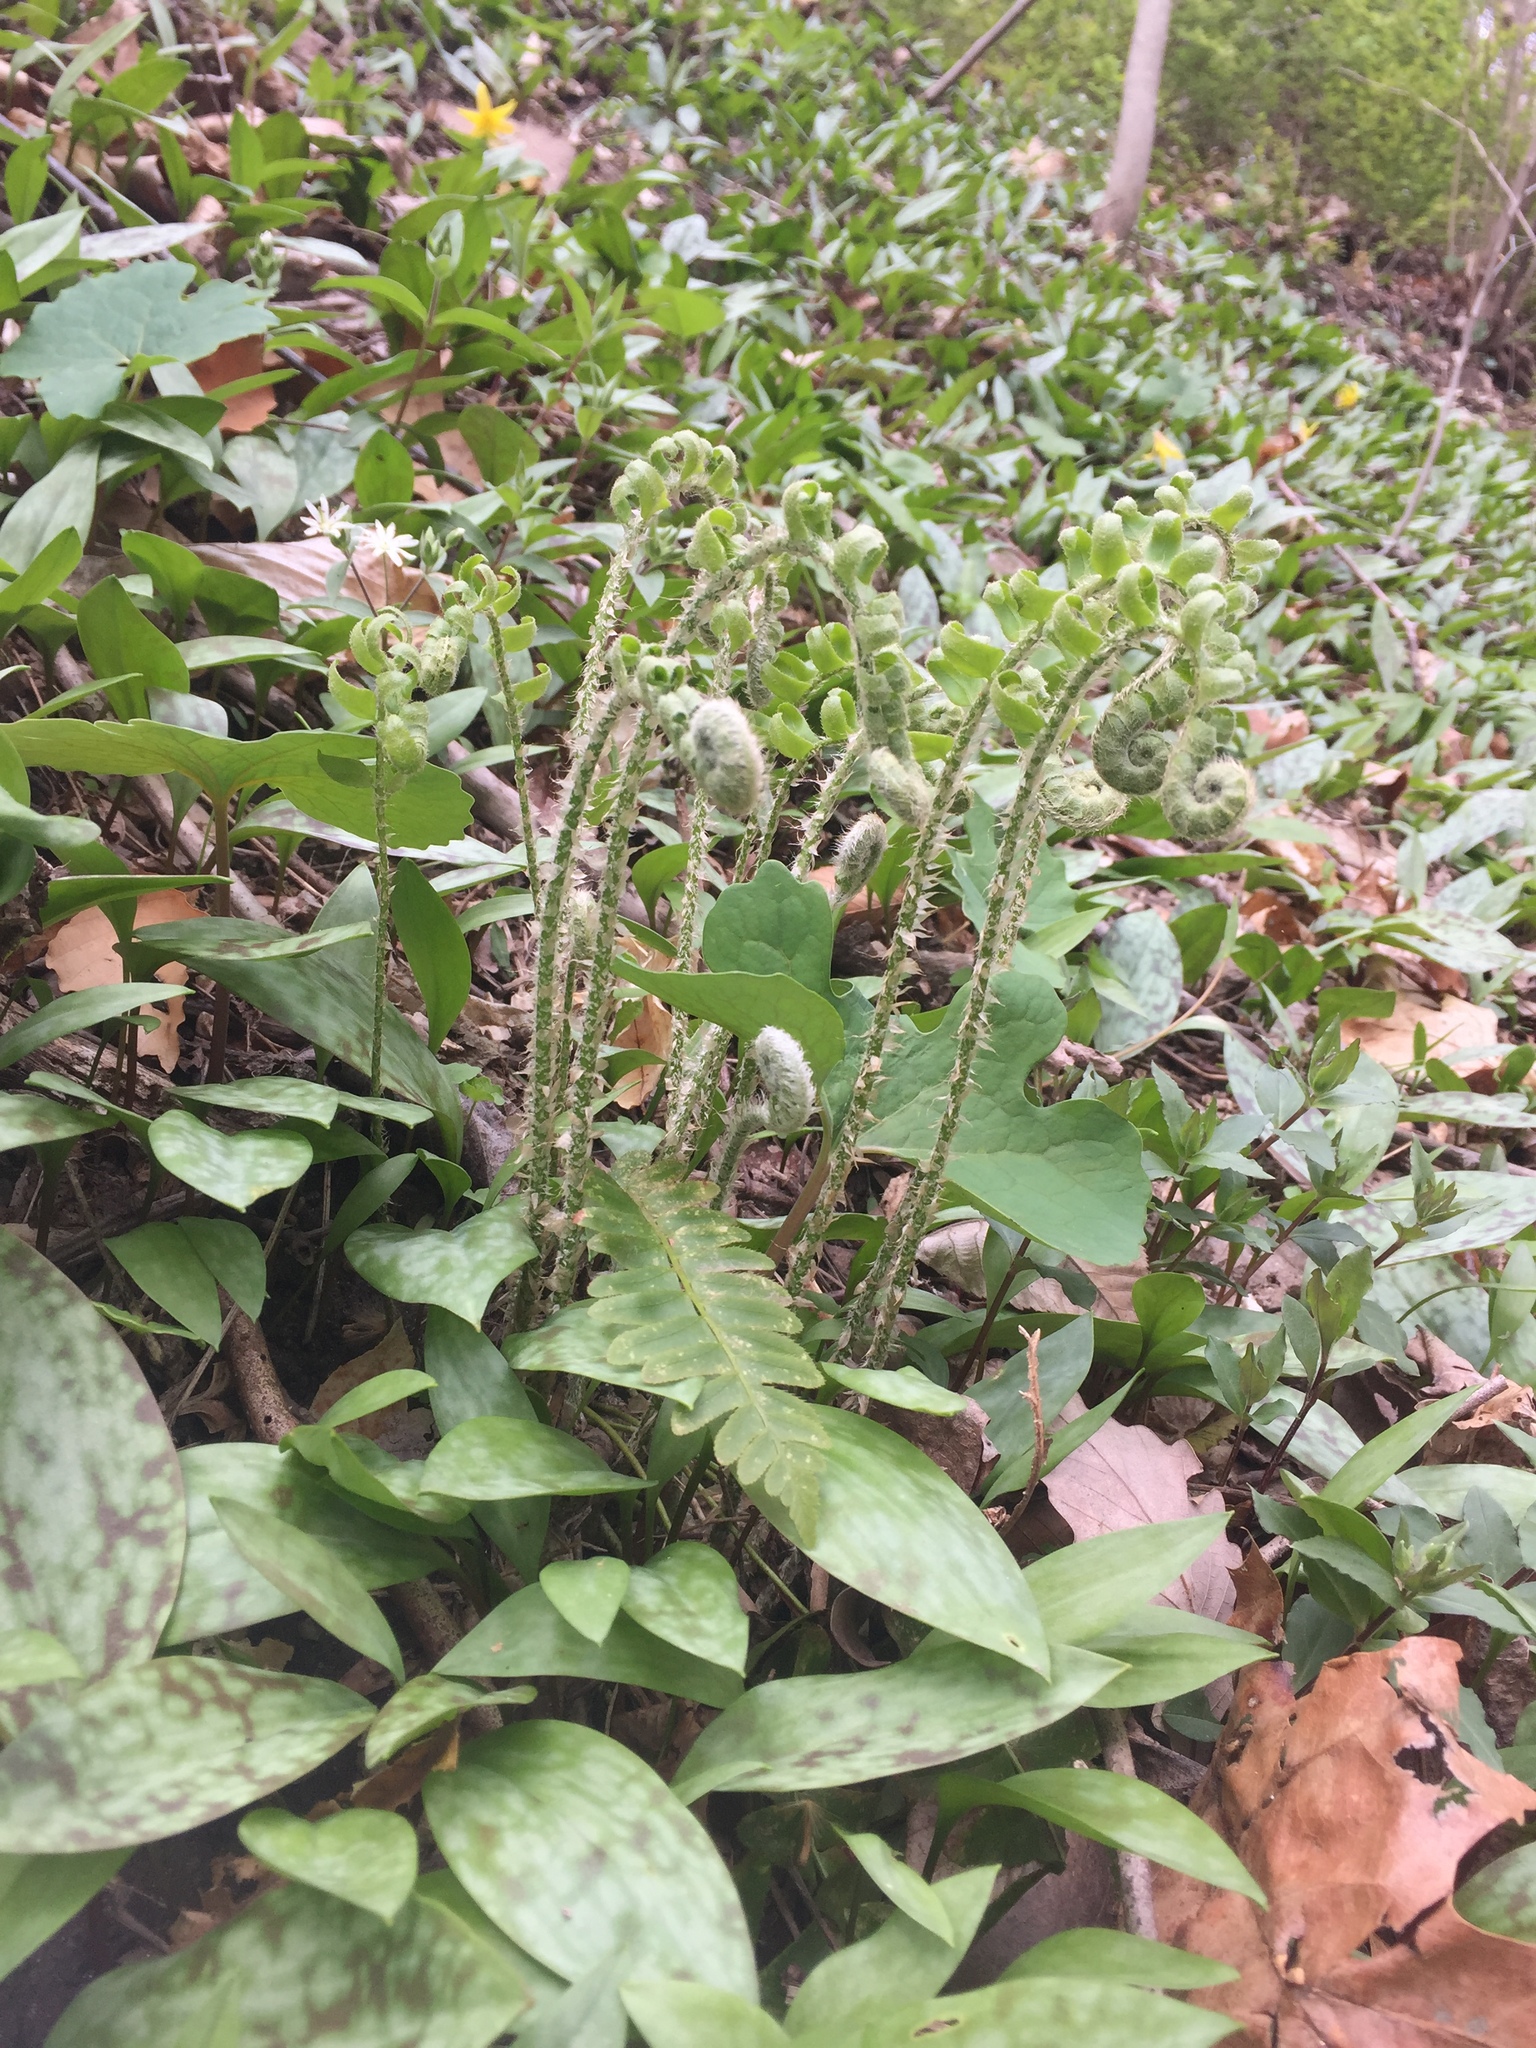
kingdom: Plantae
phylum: Tracheophyta
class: Polypodiopsida
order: Polypodiales
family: Dryopteridaceae
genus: Polystichum
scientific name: Polystichum acrostichoides
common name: Christmas fern
